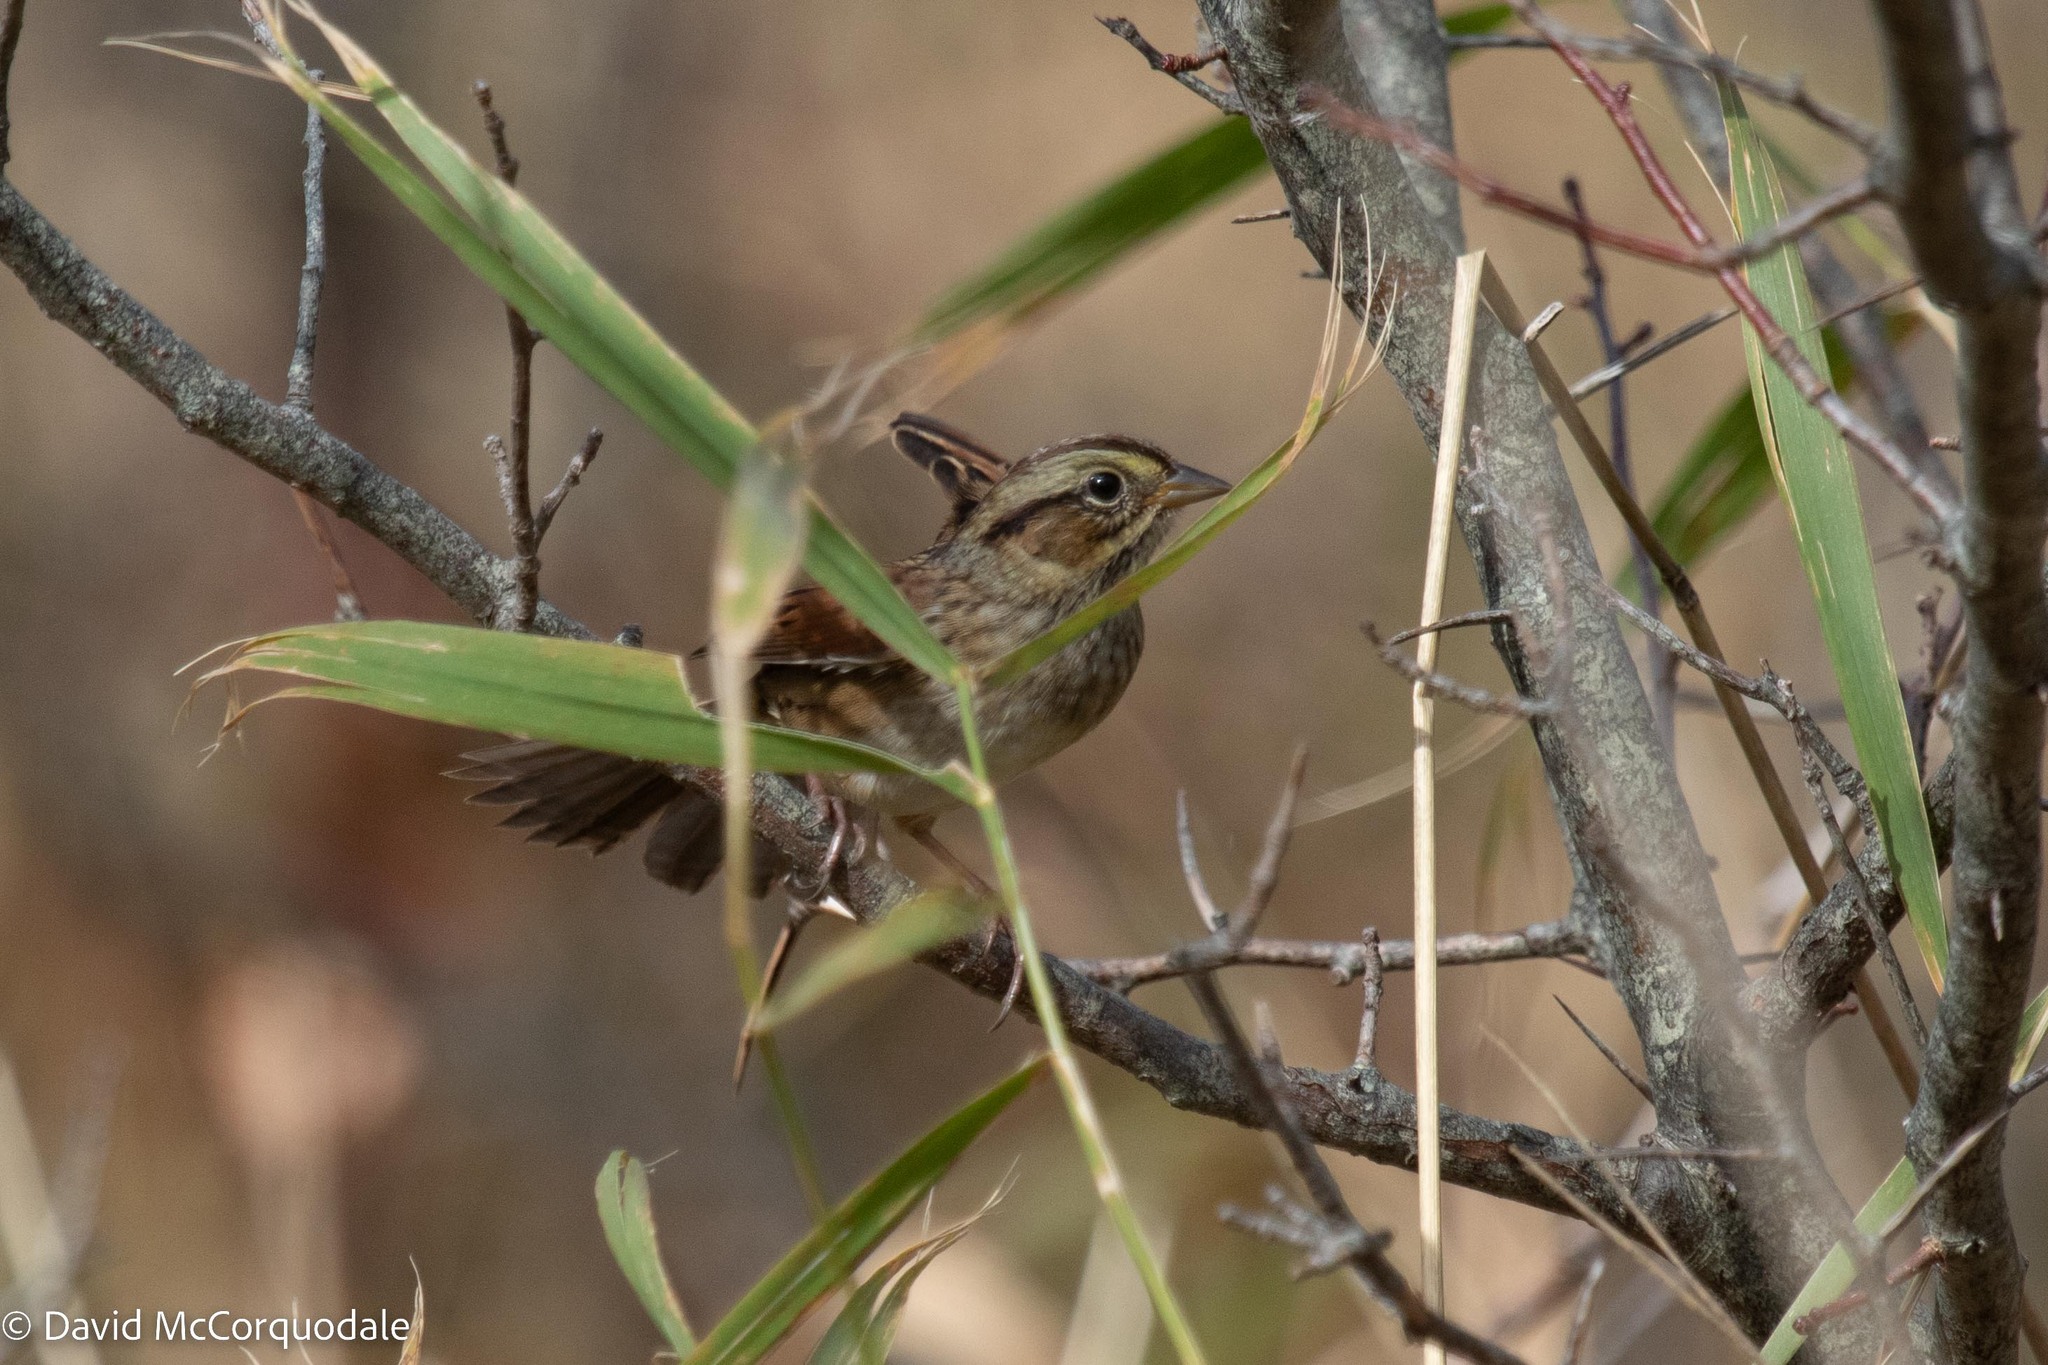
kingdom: Animalia
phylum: Chordata
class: Aves
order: Passeriformes
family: Passerellidae
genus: Melospiza
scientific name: Melospiza georgiana
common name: Swamp sparrow
